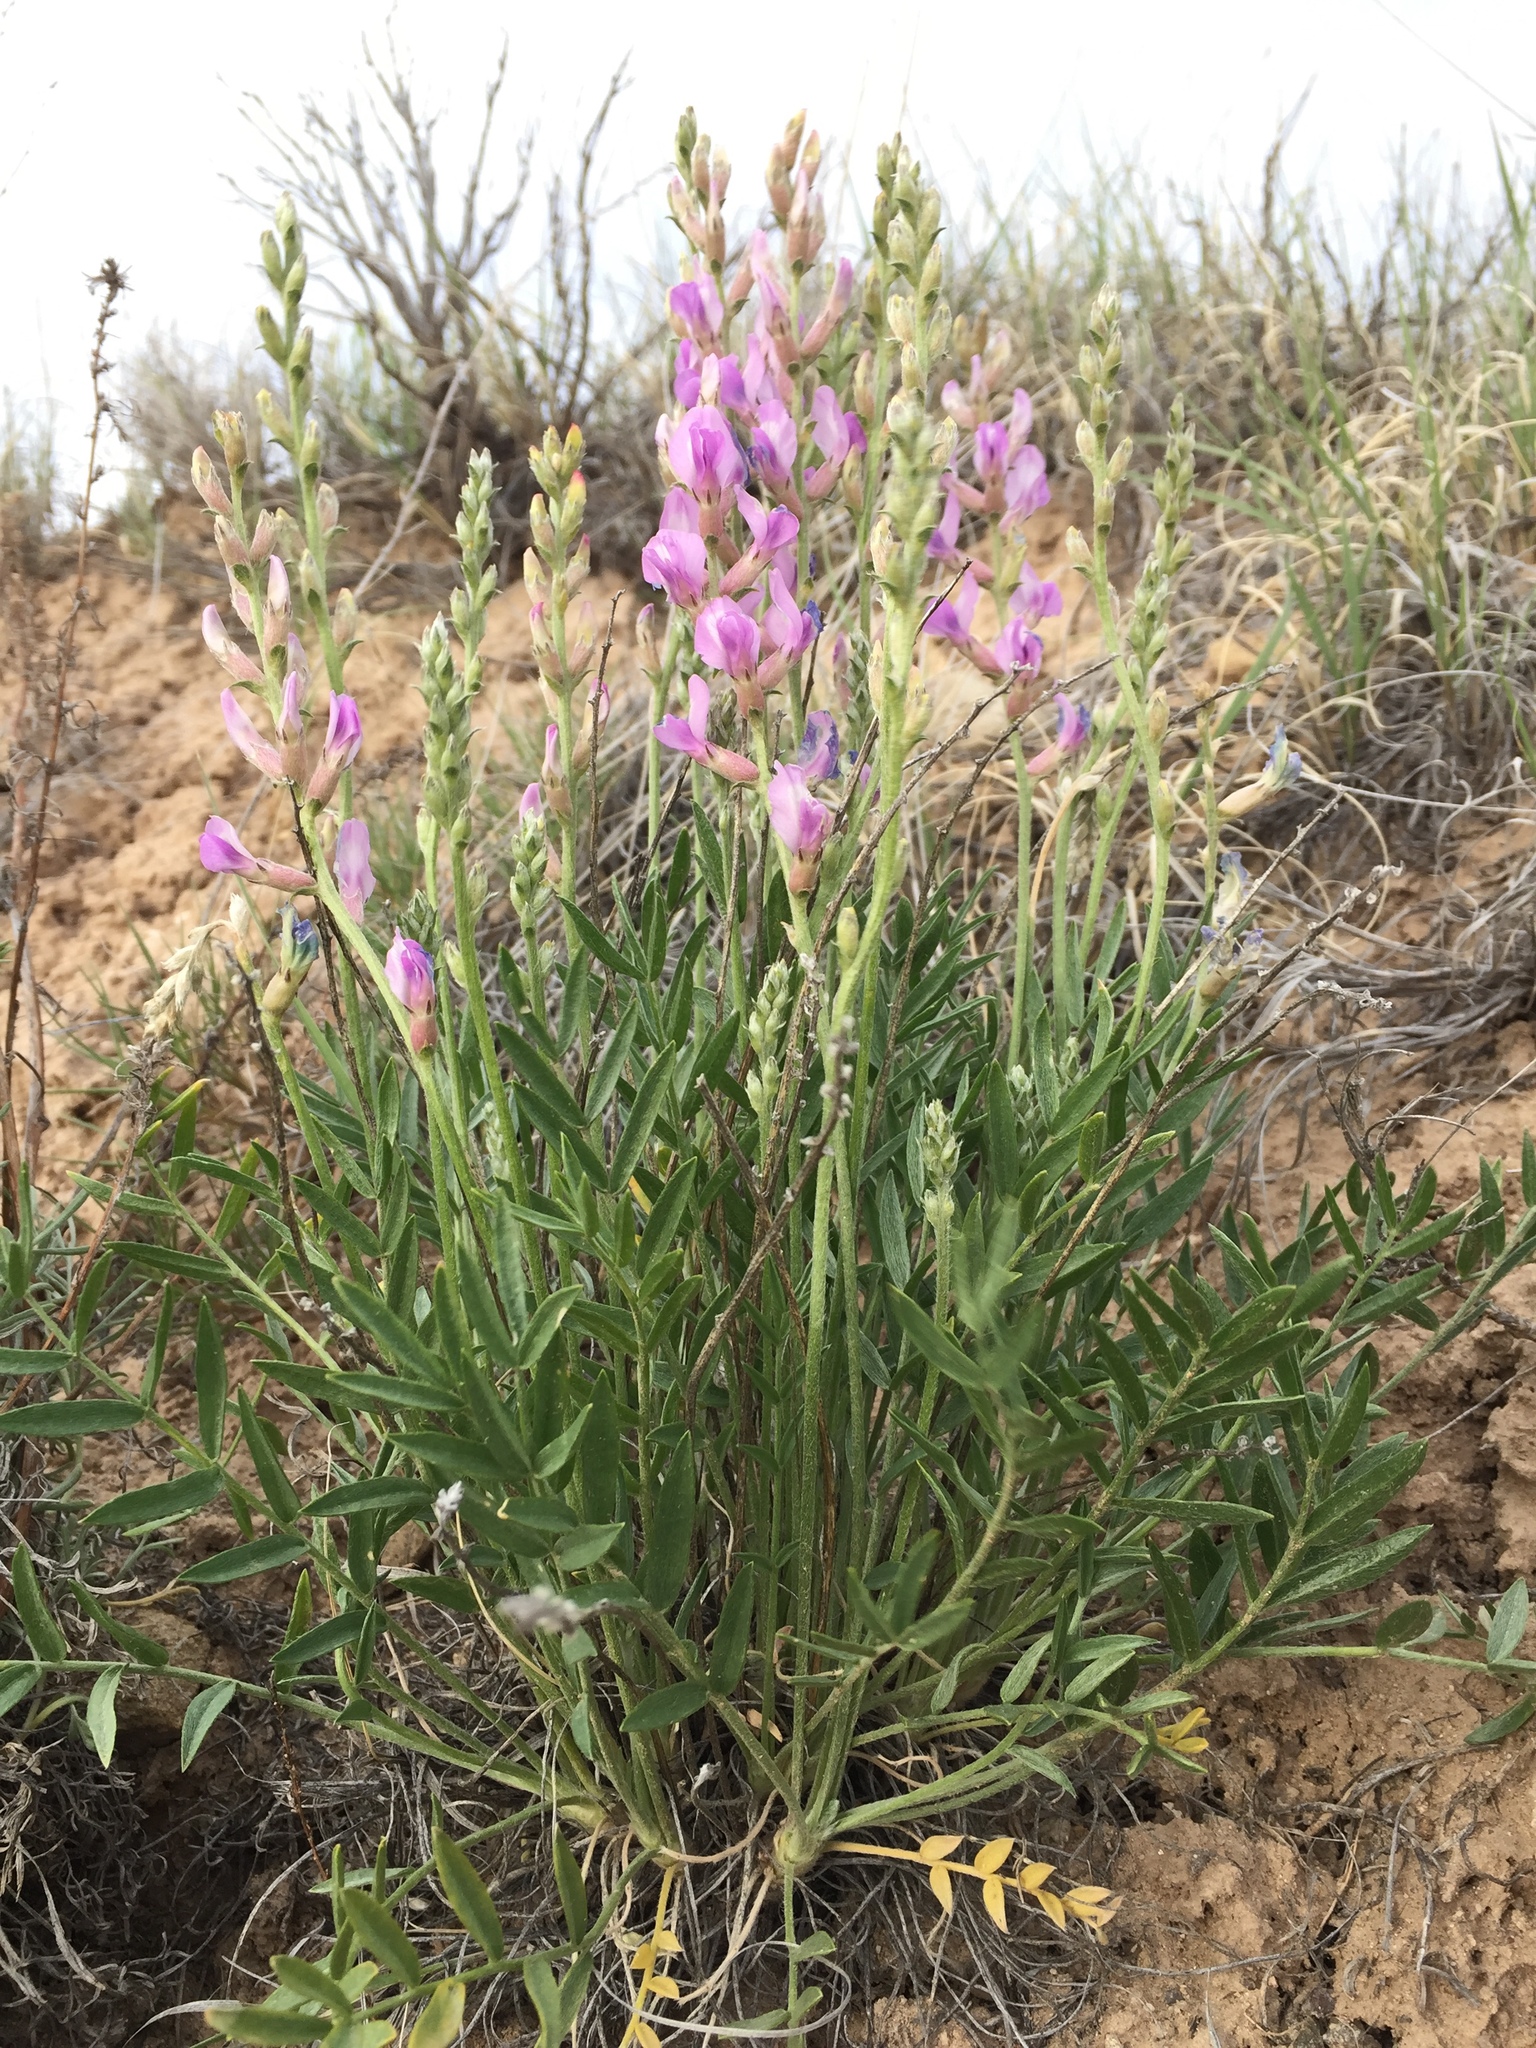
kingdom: Plantae
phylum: Tracheophyta
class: Magnoliopsida
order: Fabales
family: Fabaceae
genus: Oxytropis
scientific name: Oxytropis lambertii
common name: Purple locoweed
